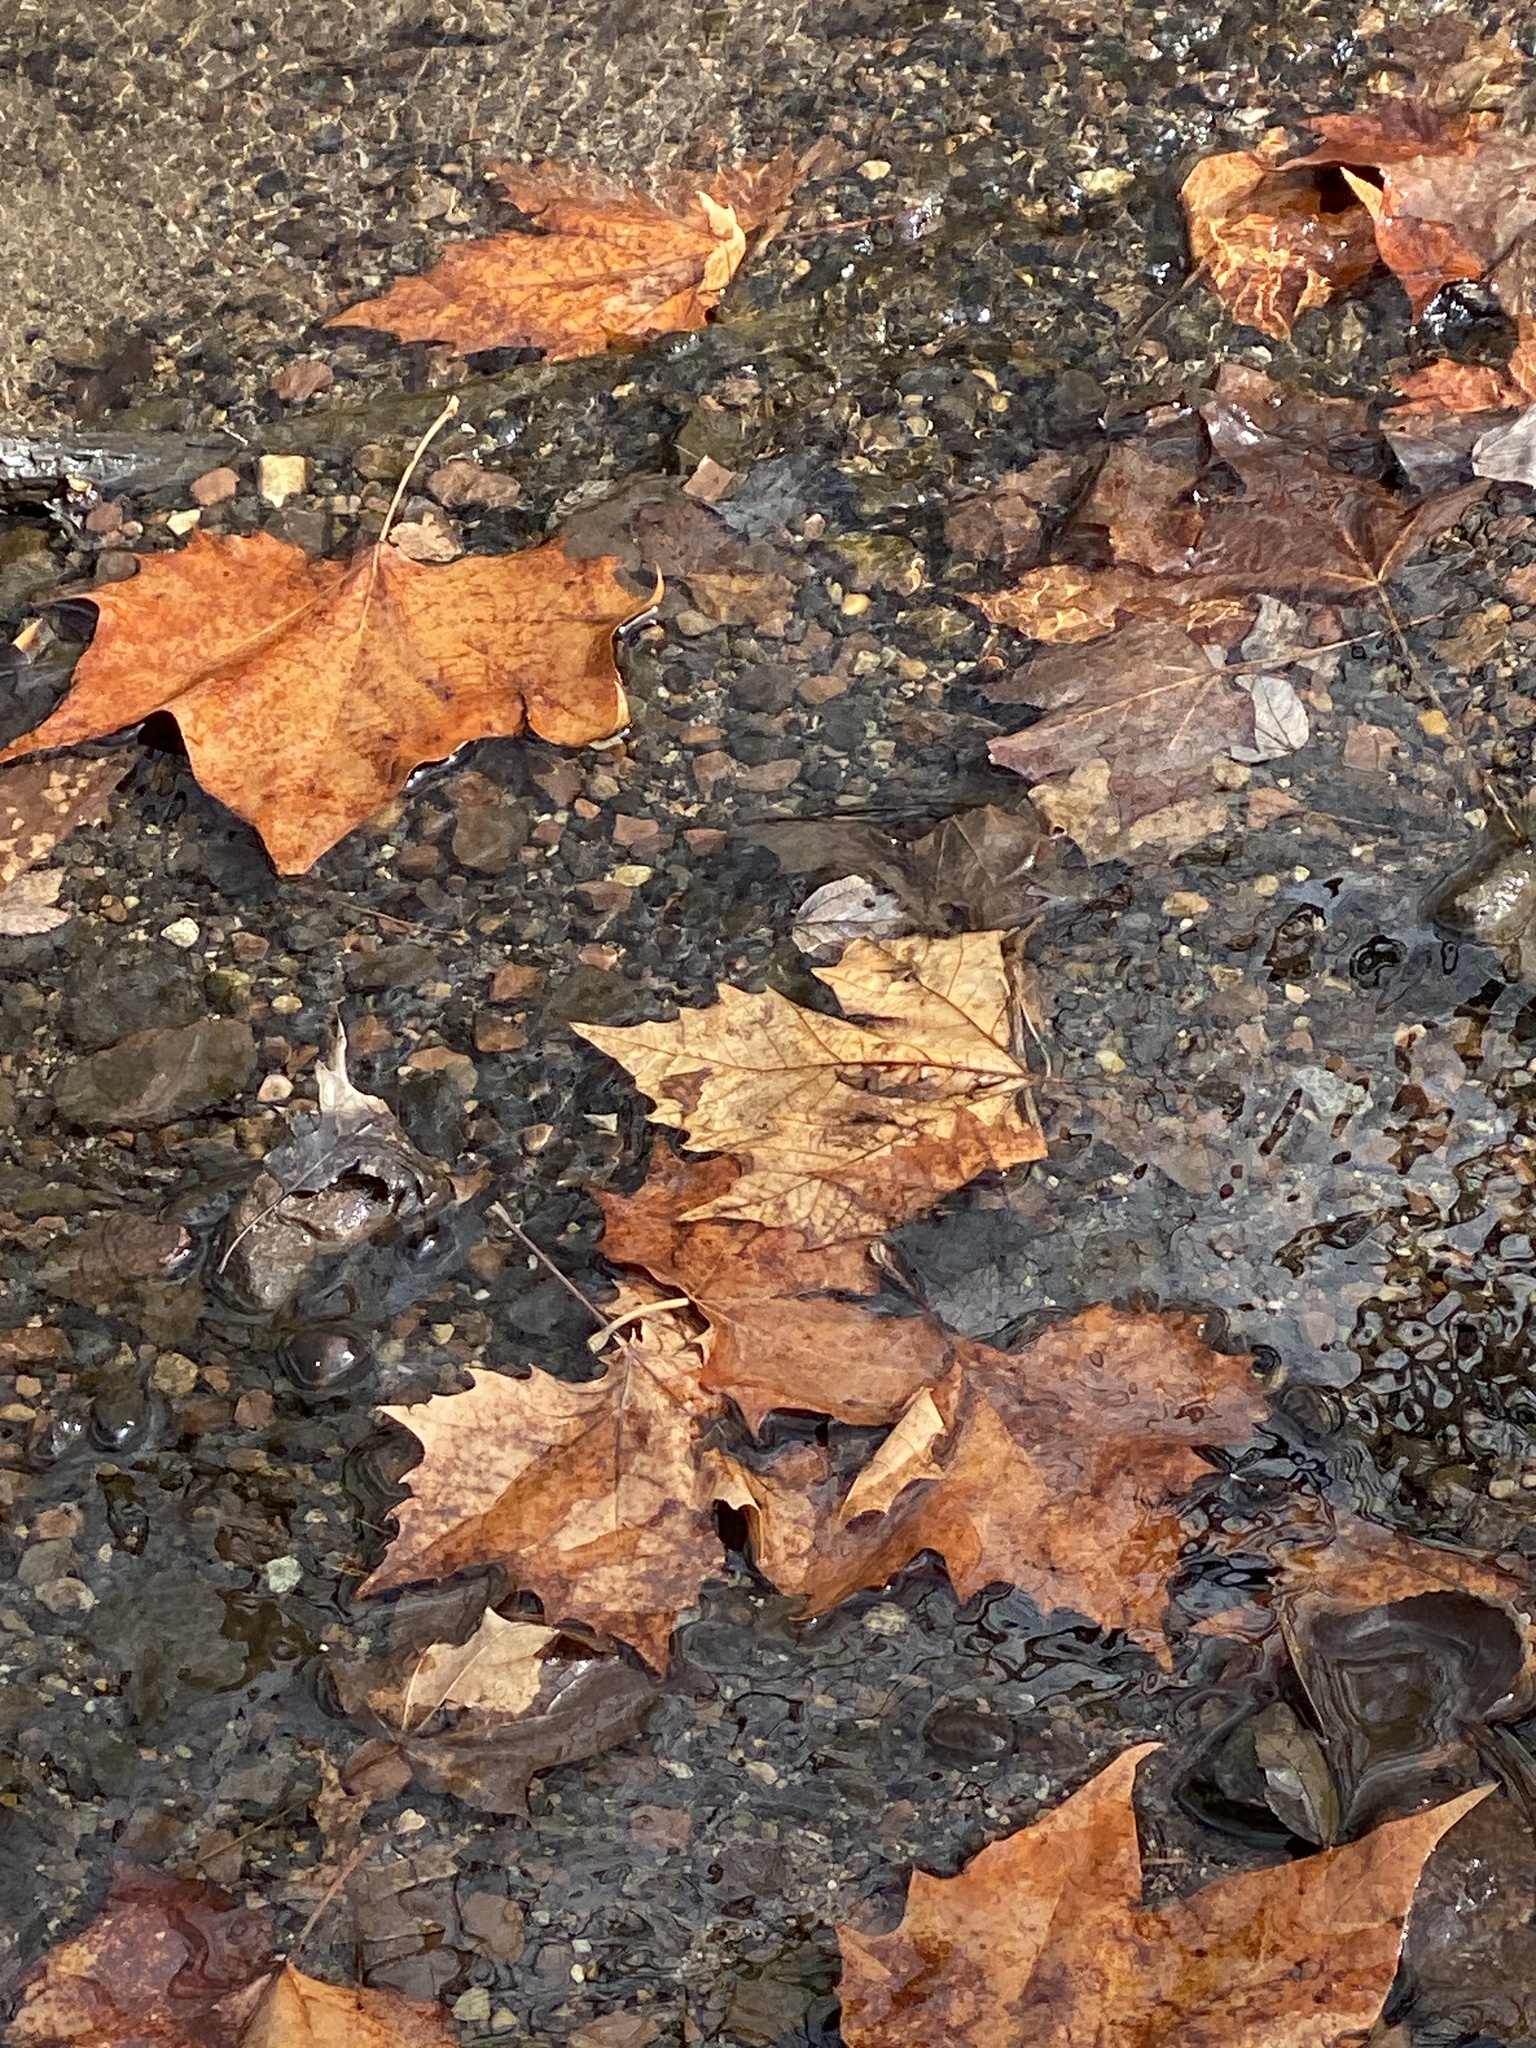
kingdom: Plantae
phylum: Tracheophyta
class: Magnoliopsida
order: Proteales
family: Platanaceae
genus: Platanus
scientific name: Platanus occidentalis
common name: American sycamore
